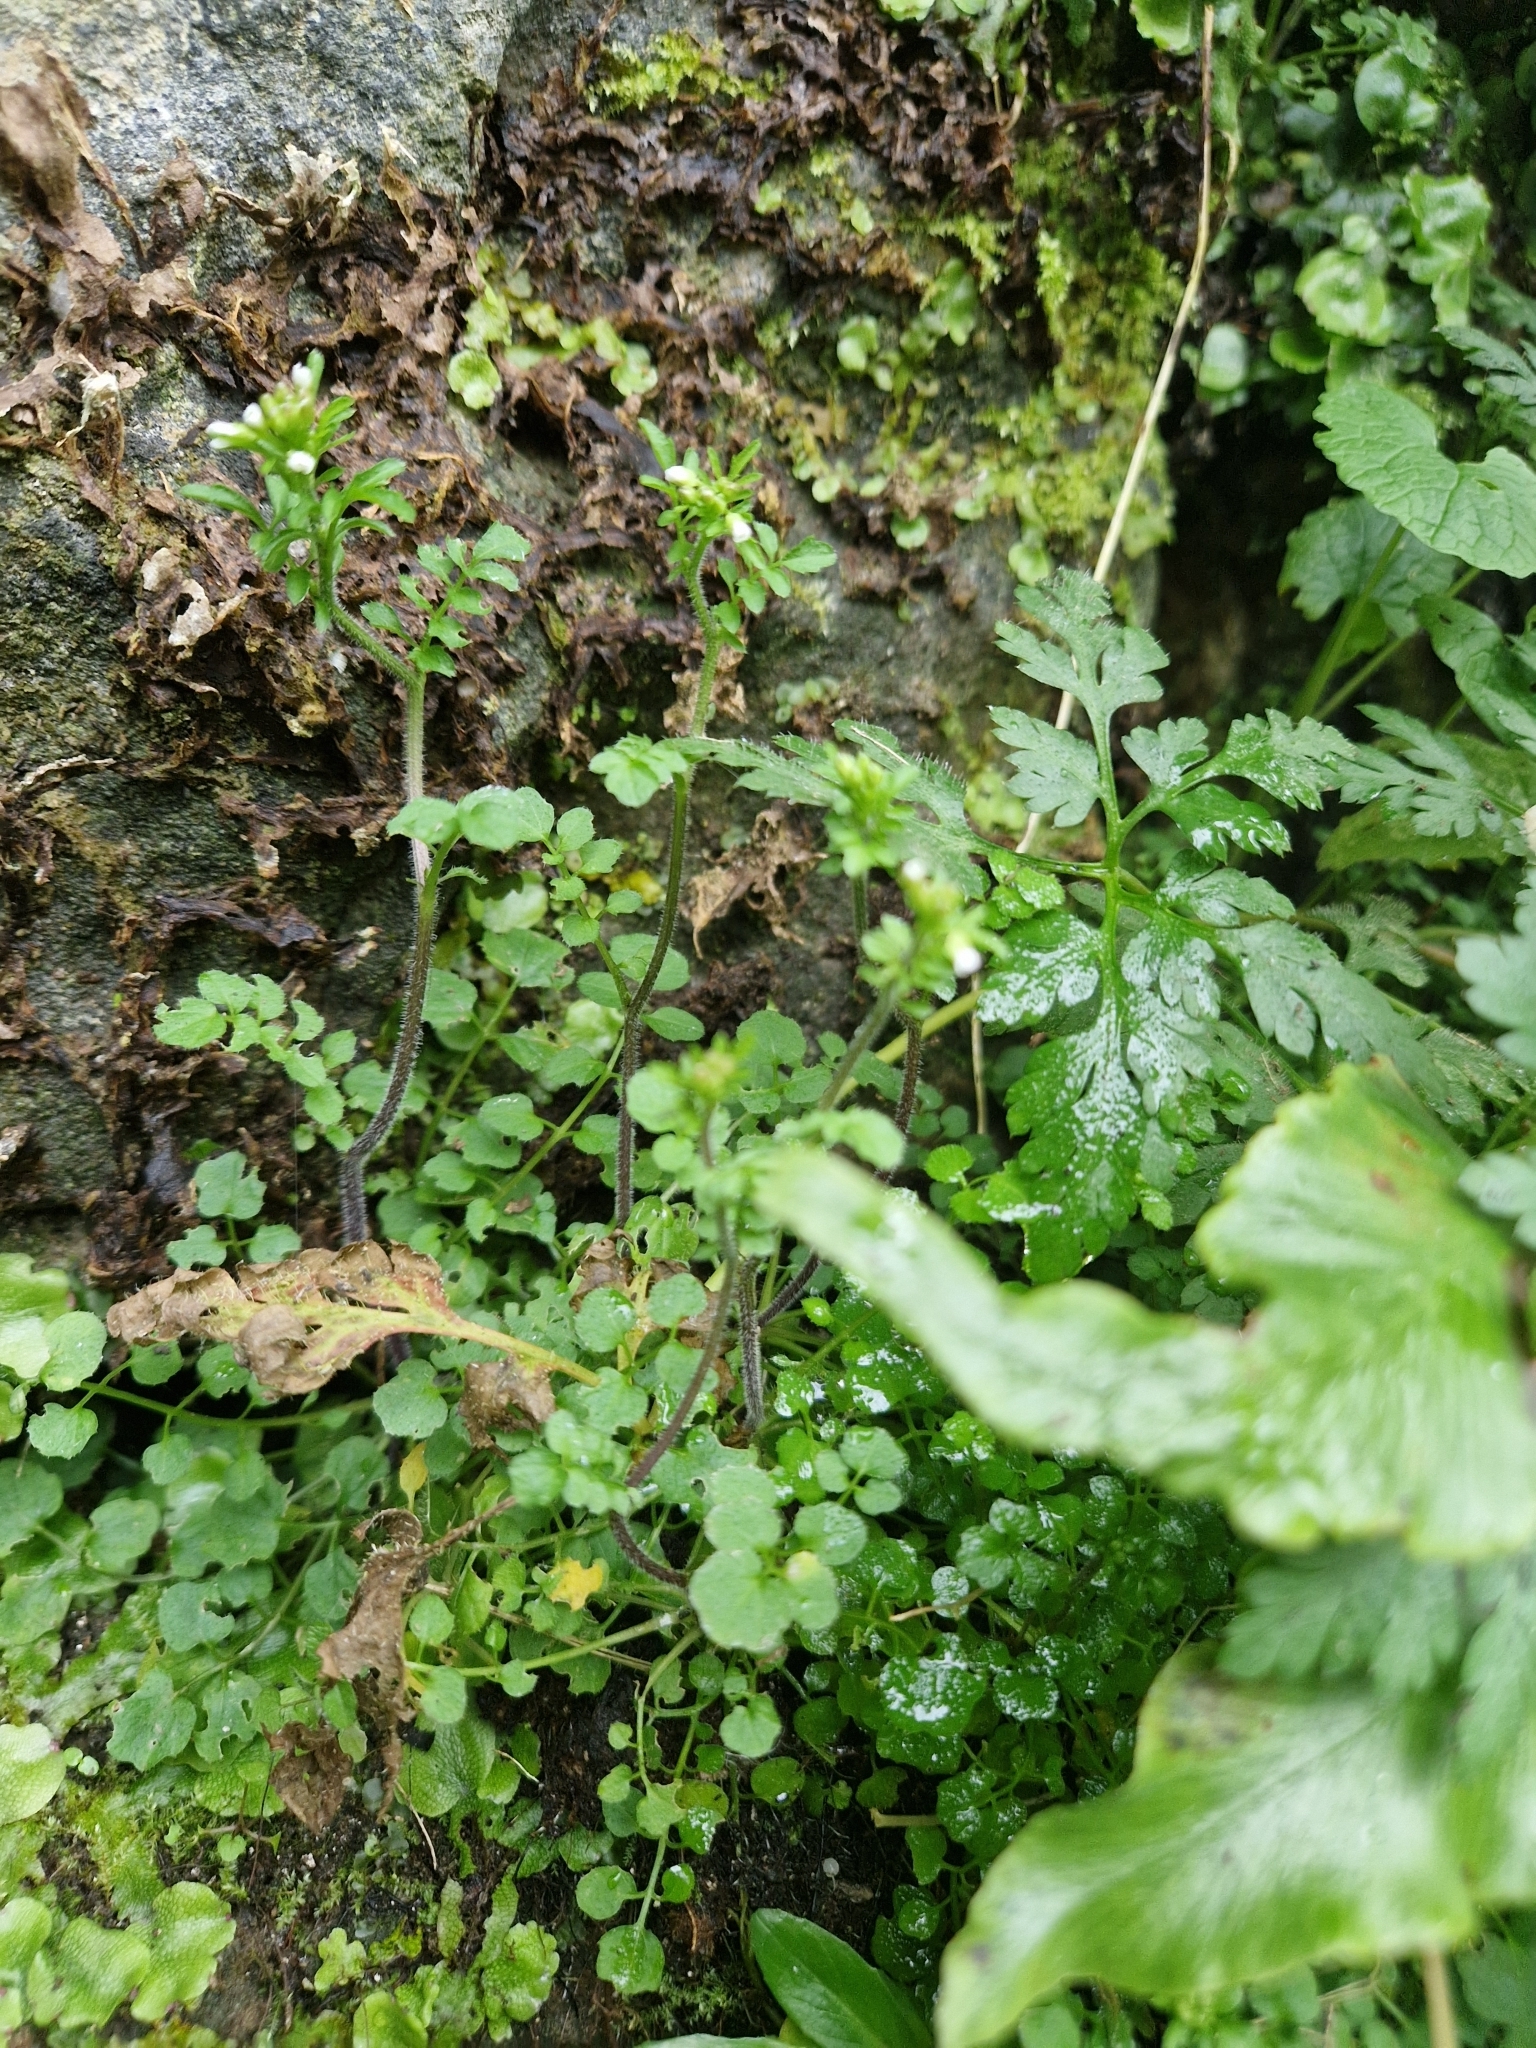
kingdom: Fungi
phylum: Ascomycota
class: Dothideomycetes
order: Venturiales
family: Venturiaceae
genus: Coleroa
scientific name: Coleroa robertiani
